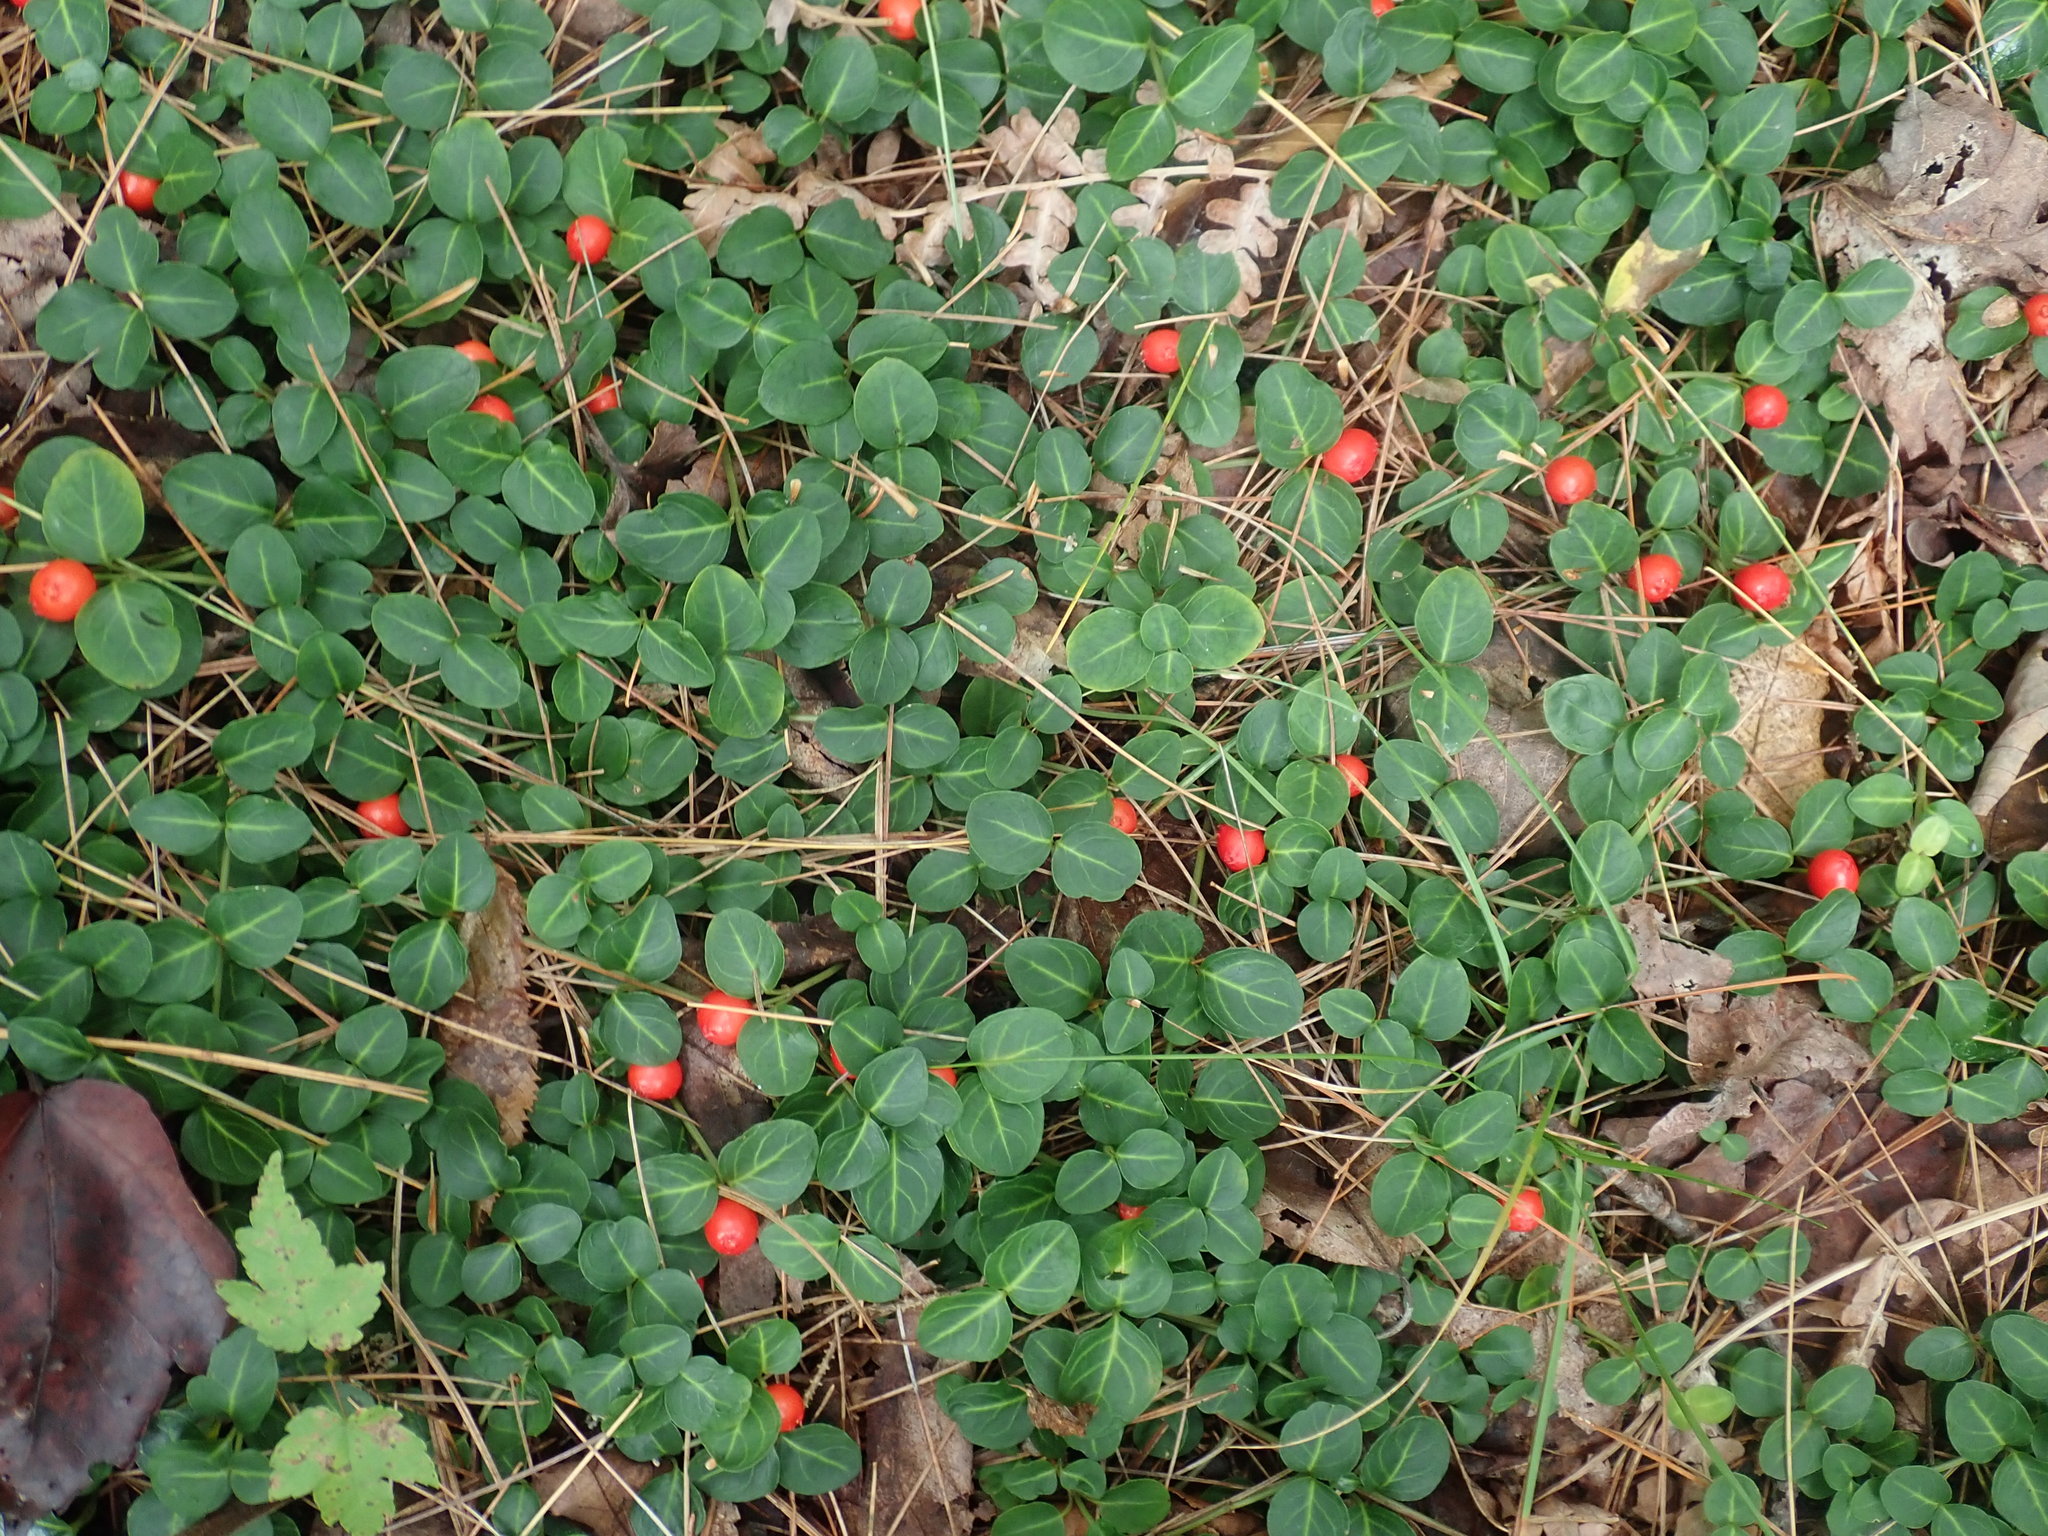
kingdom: Plantae
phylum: Tracheophyta
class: Magnoliopsida
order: Gentianales
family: Rubiaceae
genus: Mitchella
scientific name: Mitchella repens
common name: Partridge-berry
